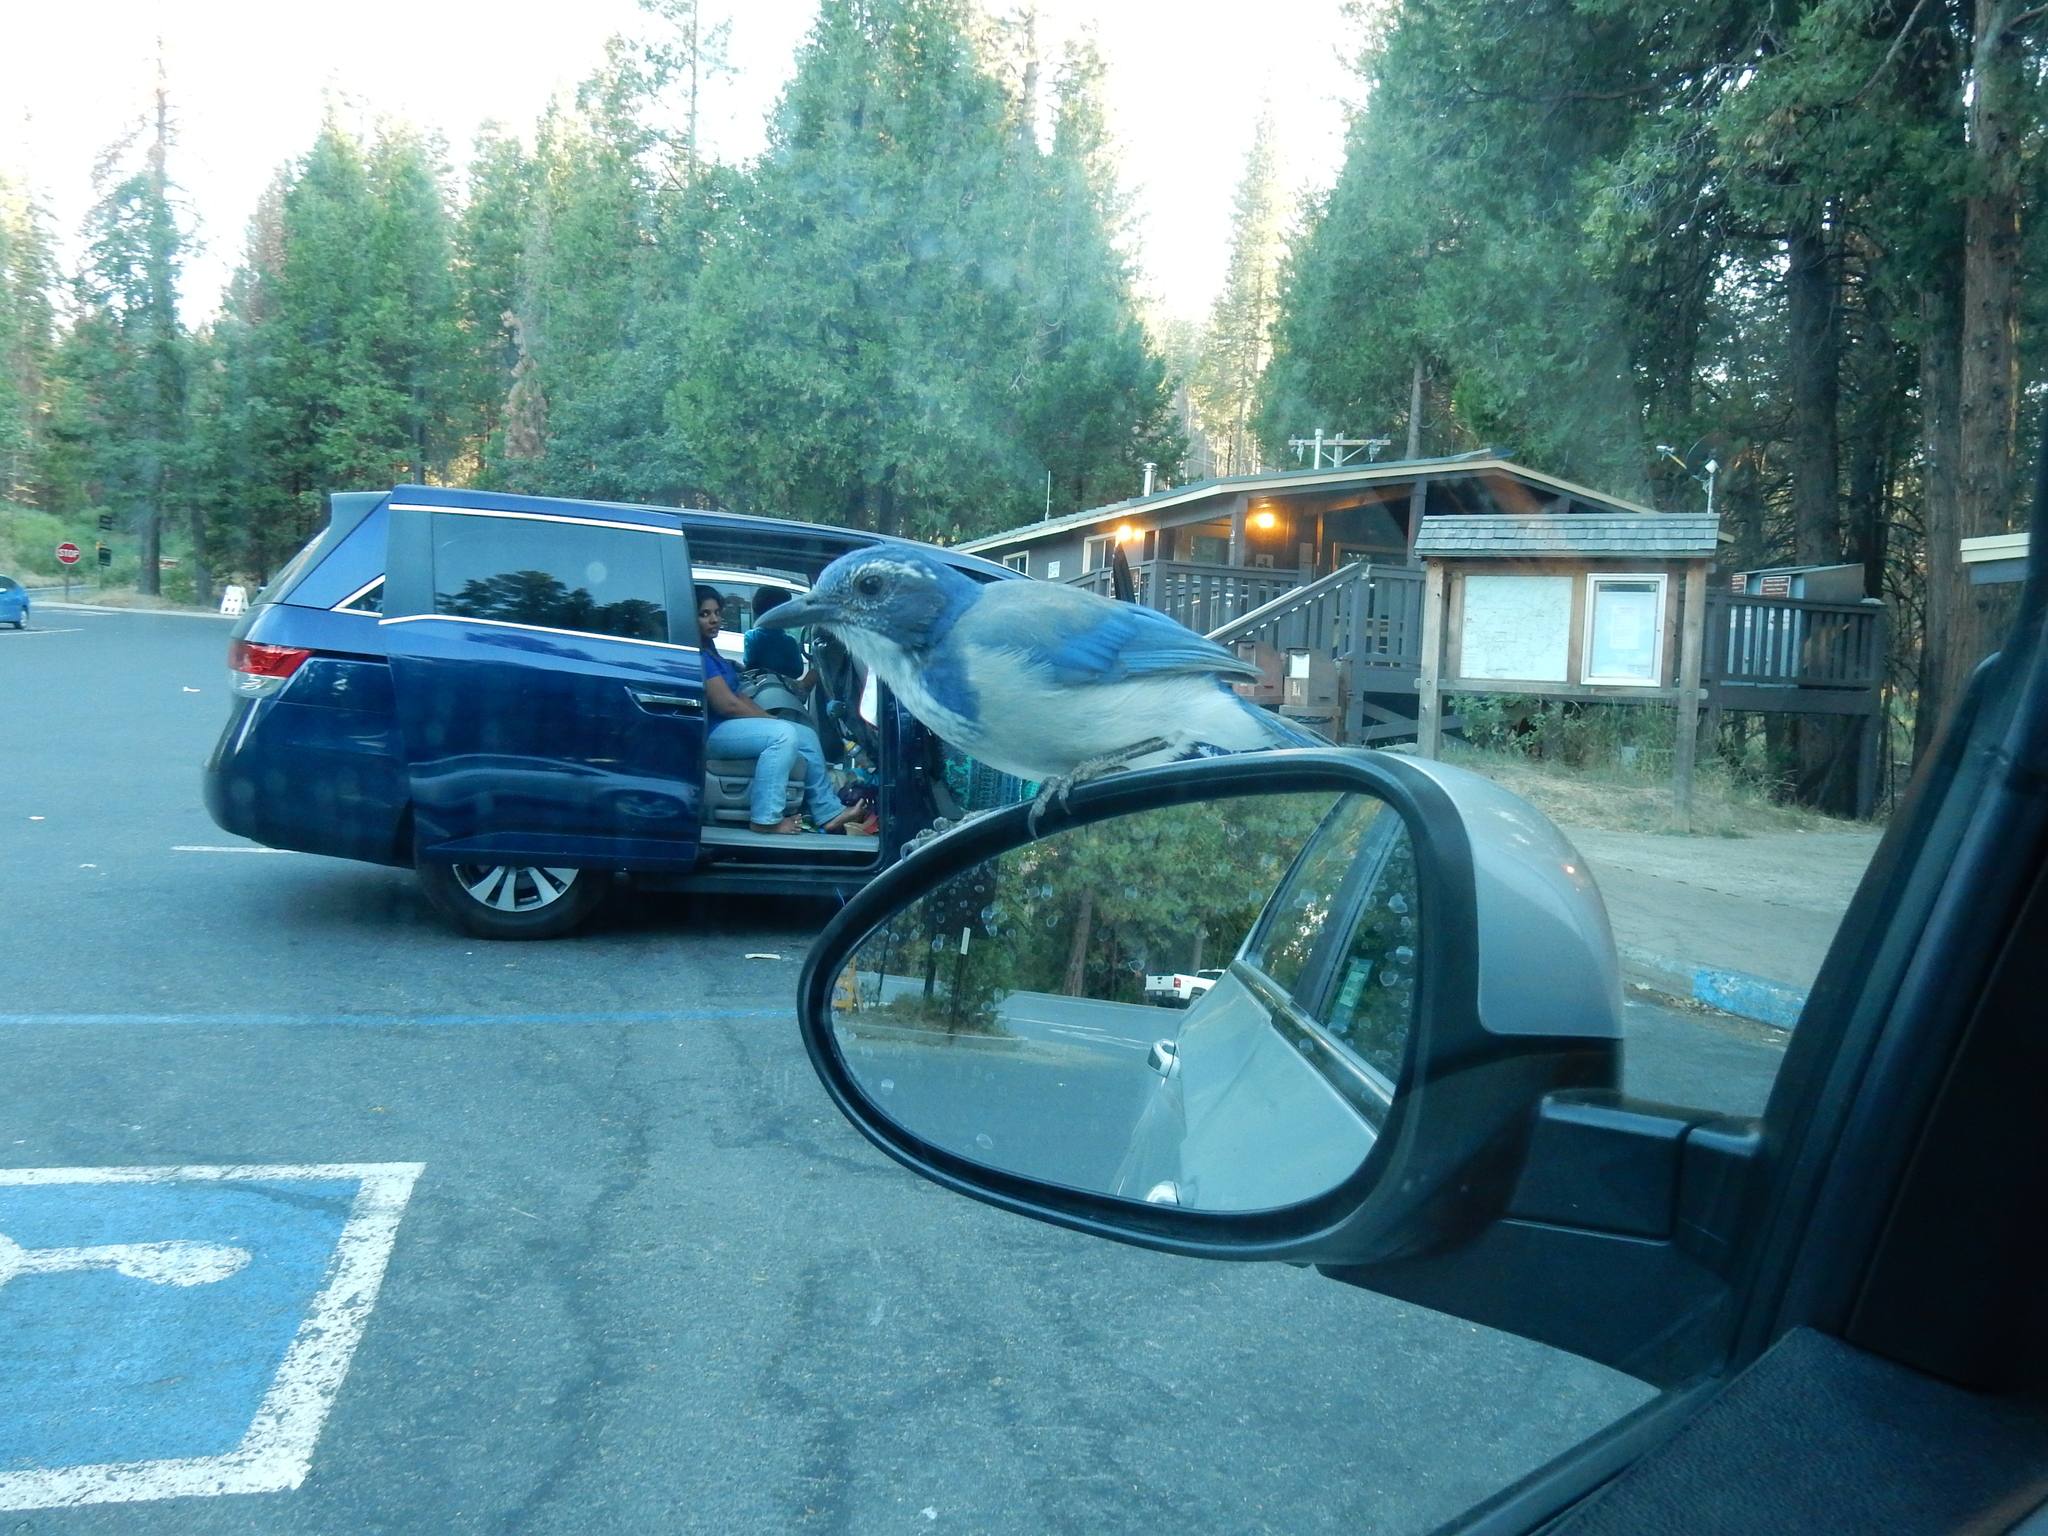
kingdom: Animalia
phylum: Chordata
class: Aves
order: Passeriformes
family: Corvidae
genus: Aphelocoma
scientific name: Aphelocoma californica
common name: California scrub-jay
